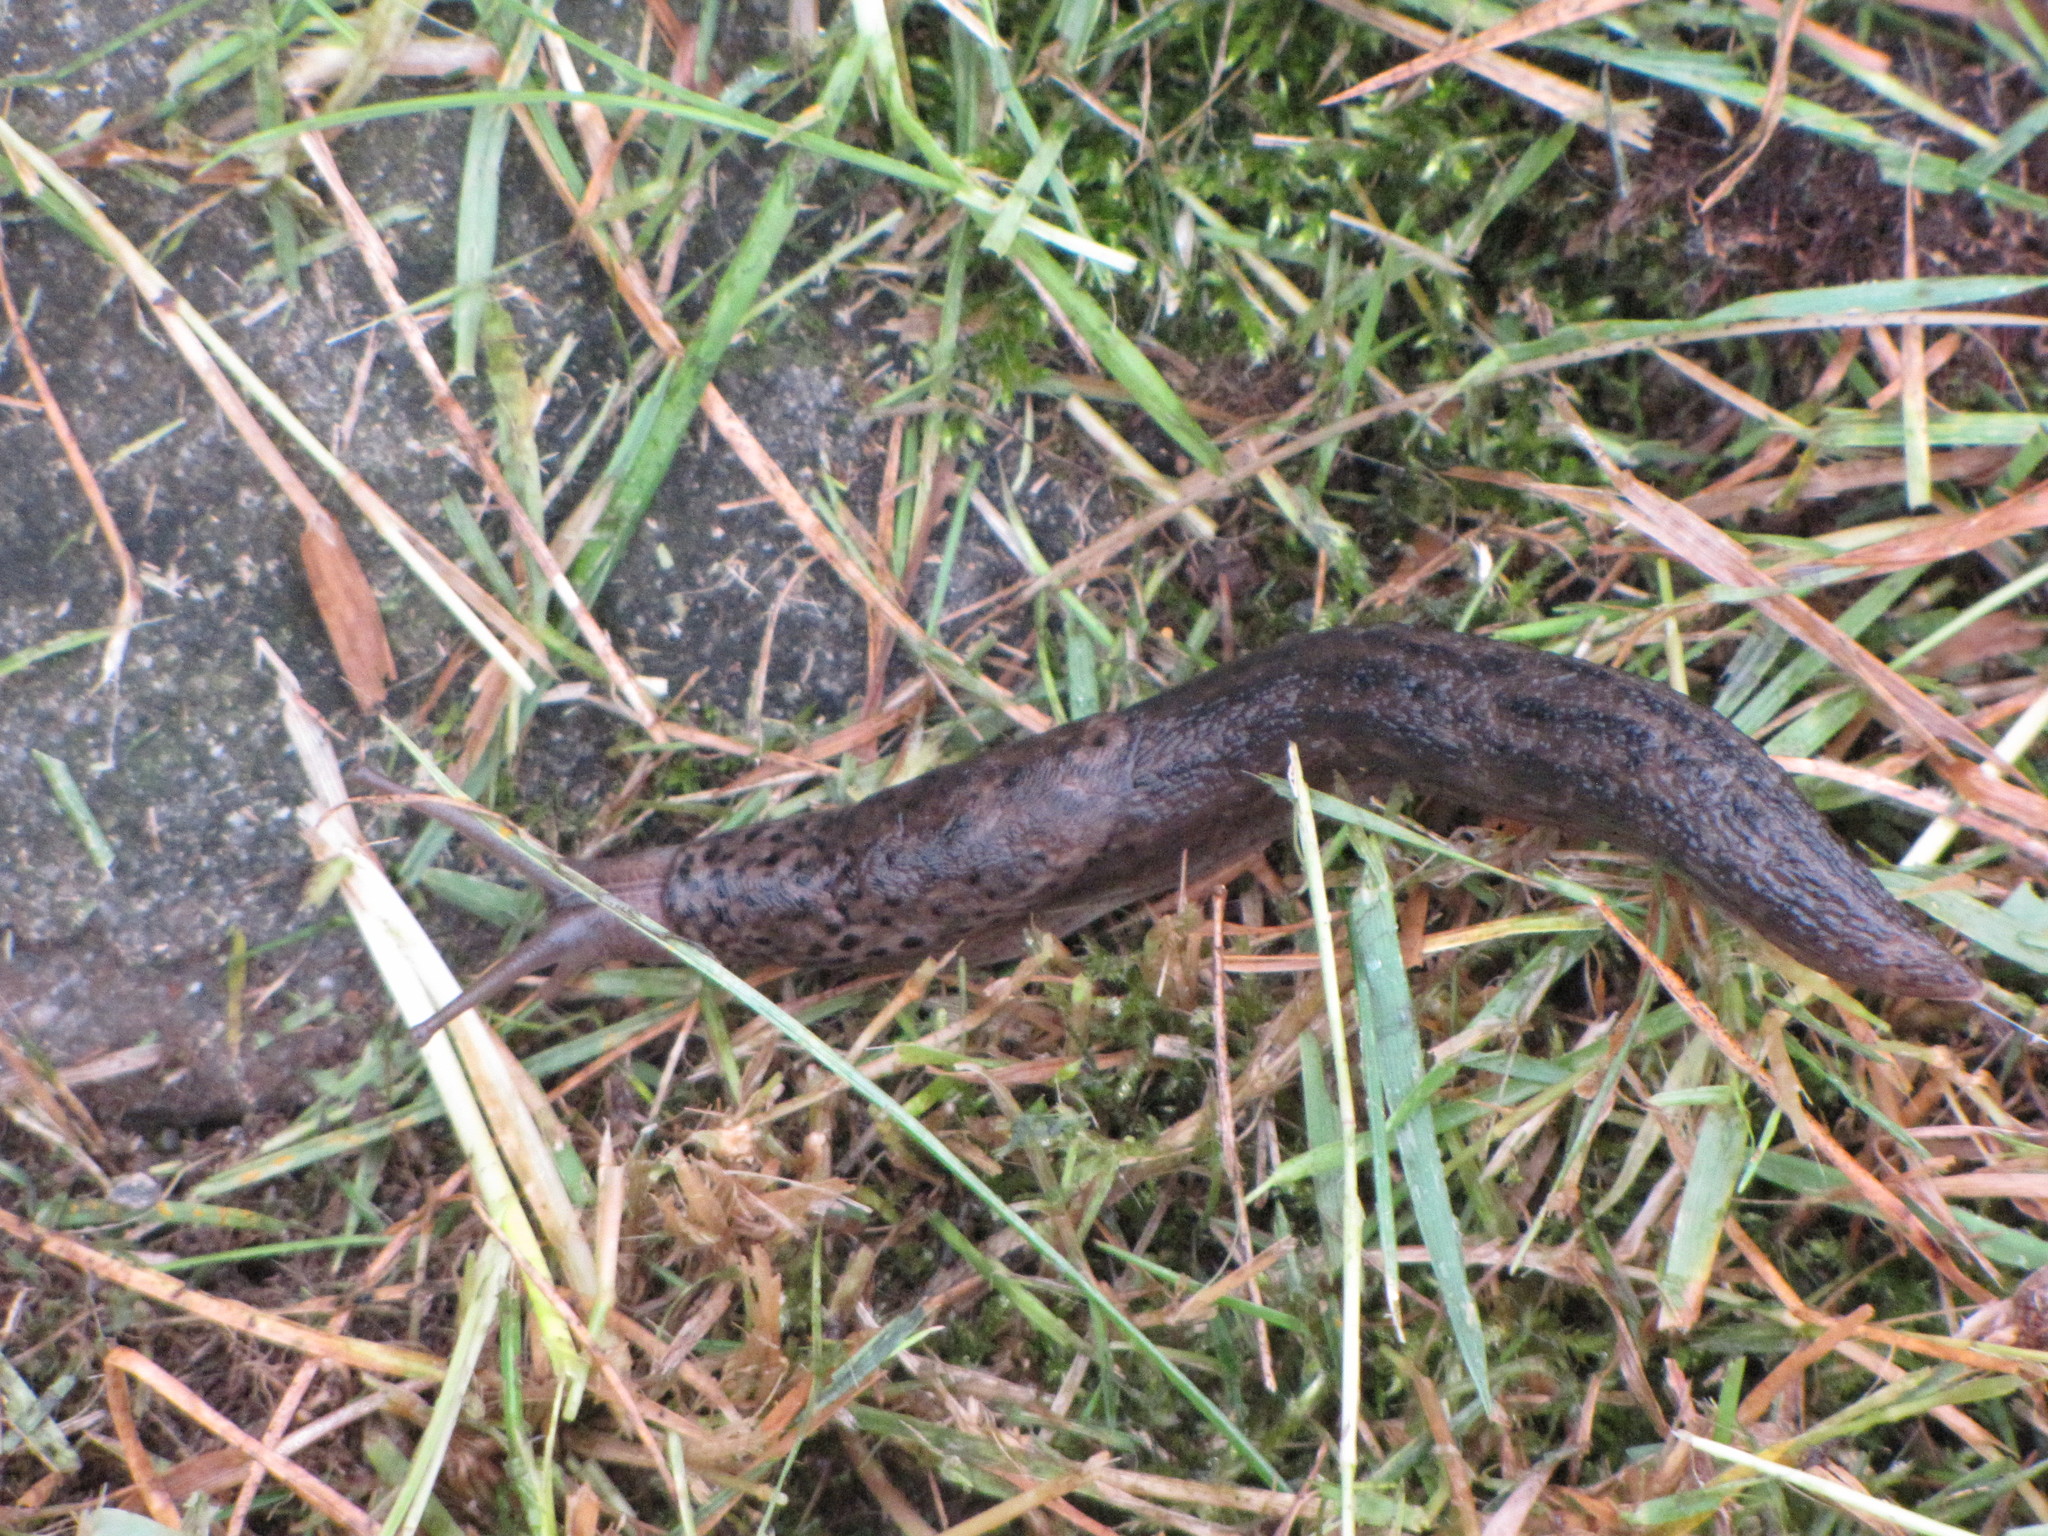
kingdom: Animalia
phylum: Mollusca
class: Gastropoda
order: Stylommatophora
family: Limacidae
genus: Limax
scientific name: Limax maximus
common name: Great grey slug
